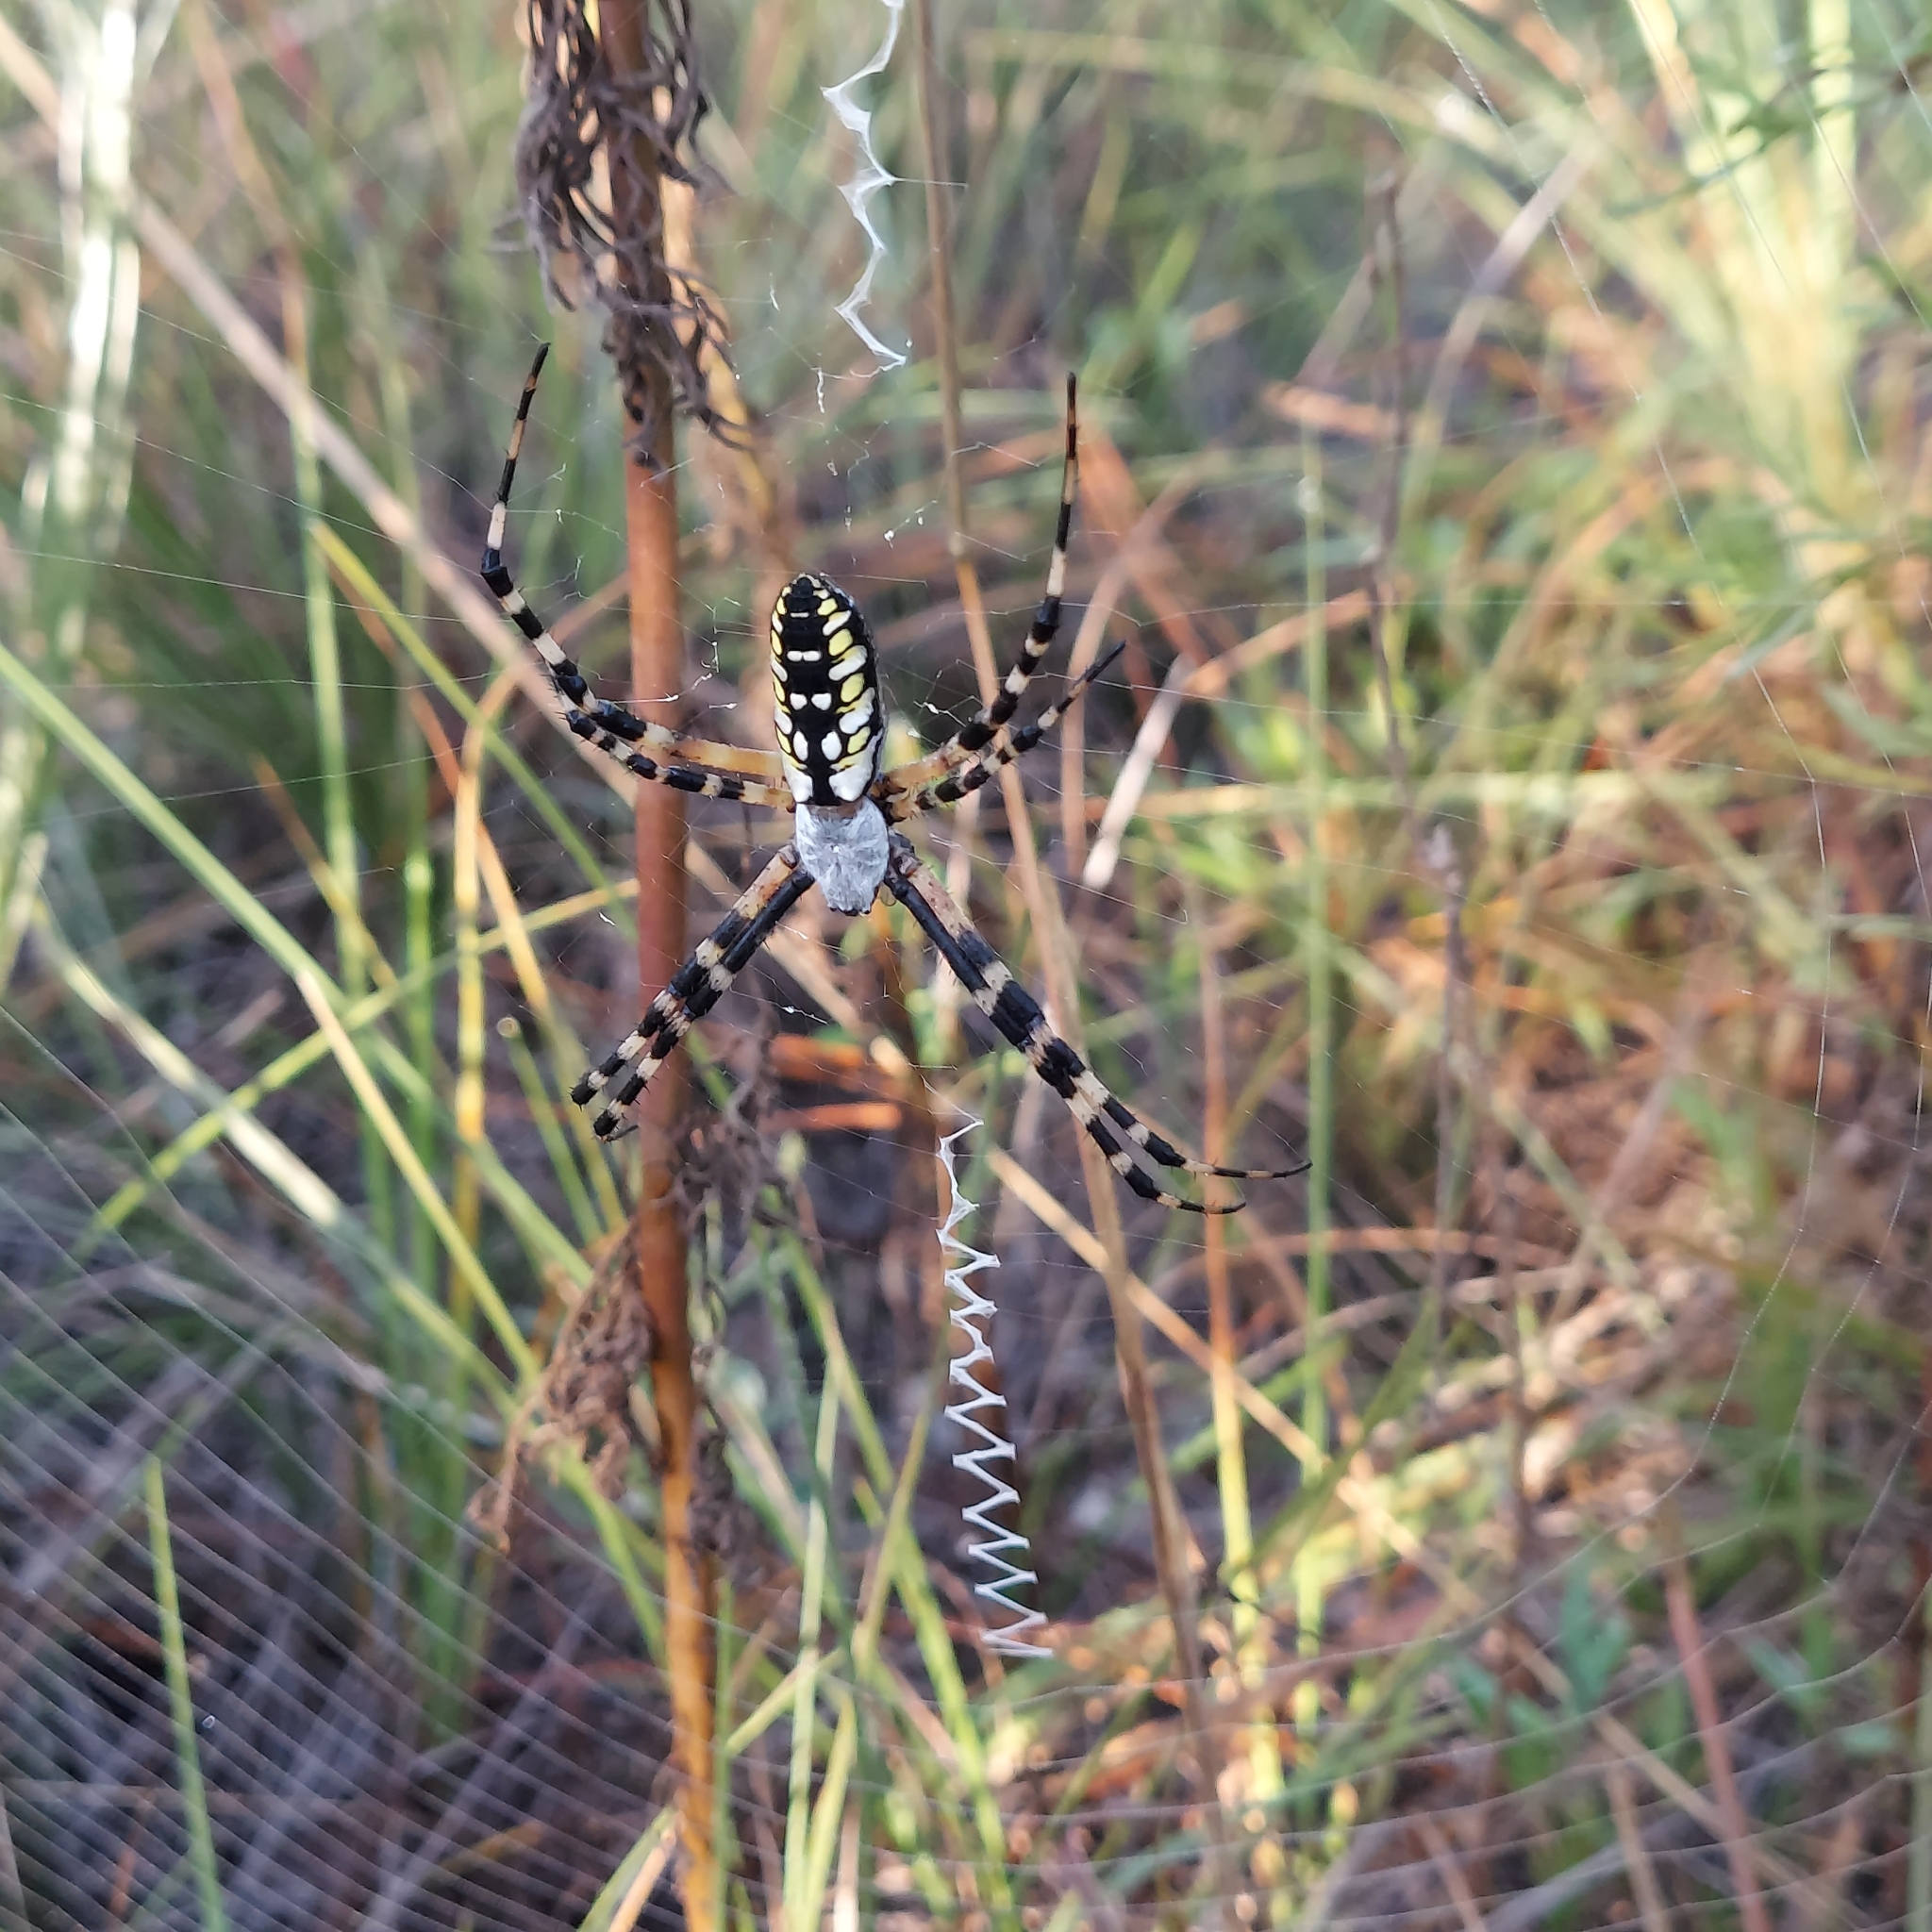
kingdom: Animalia
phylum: Arthropoda
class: Arachnida
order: Araneae
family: Araneidae
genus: Argiope
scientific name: Argiope aurantia
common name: Orb weavers
